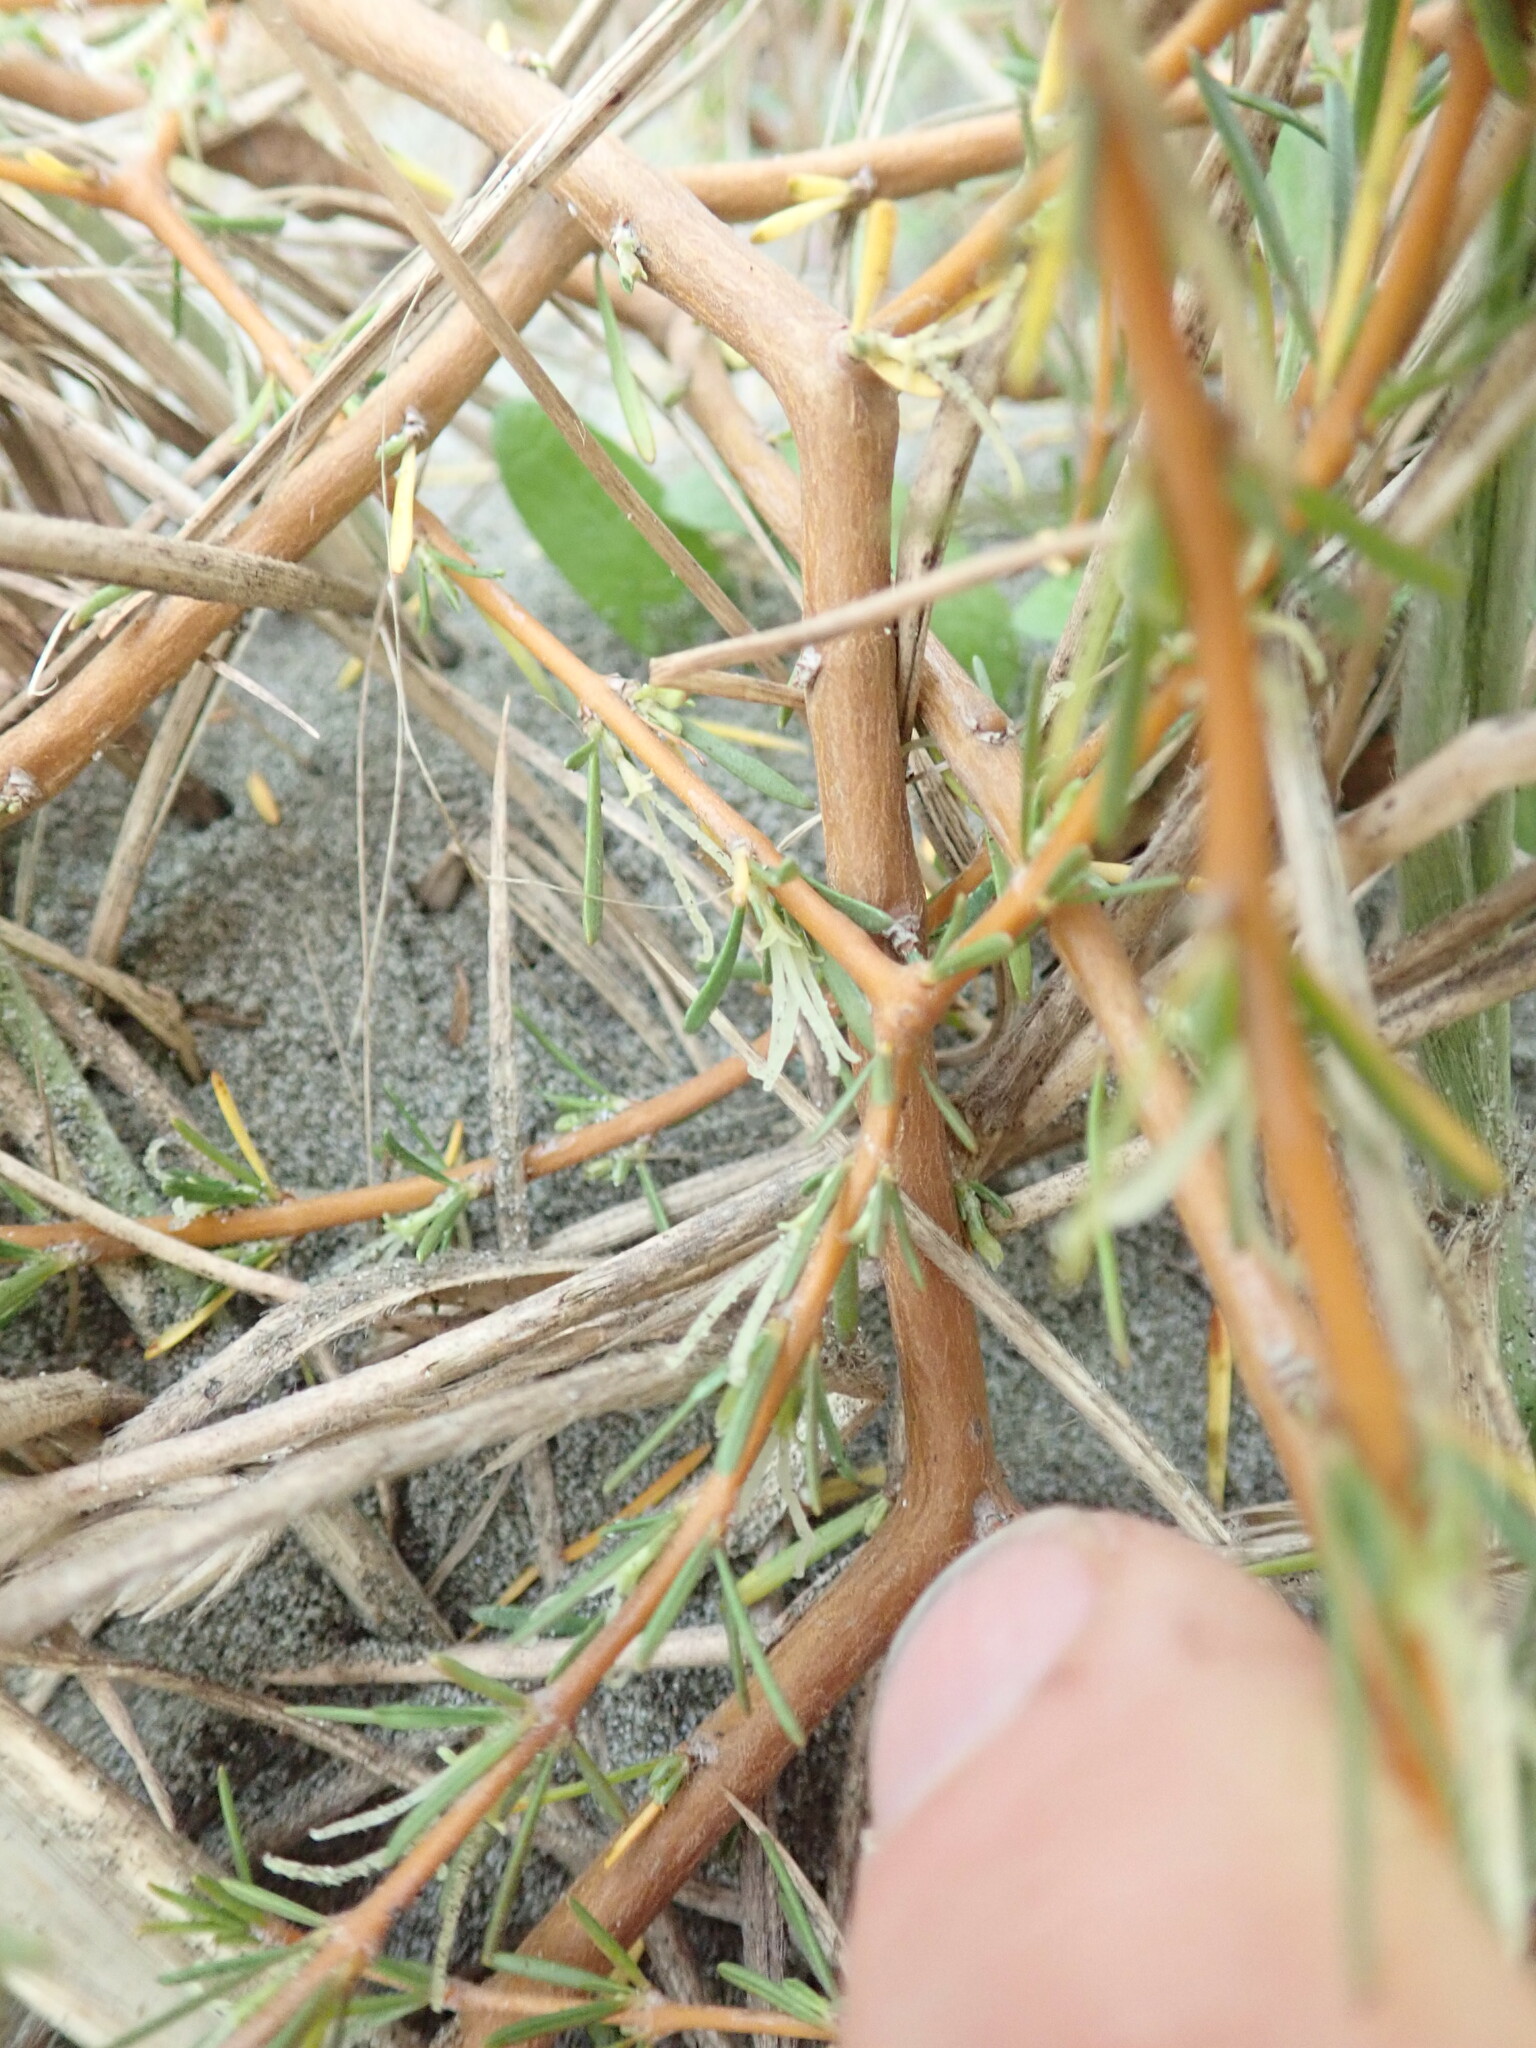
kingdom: Plantae
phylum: Tracheophyta
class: Magnoliopsida
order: Gentianales
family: Rubiaceae
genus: Coprosma
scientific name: Coprosma acerosa
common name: Sand coprosma
